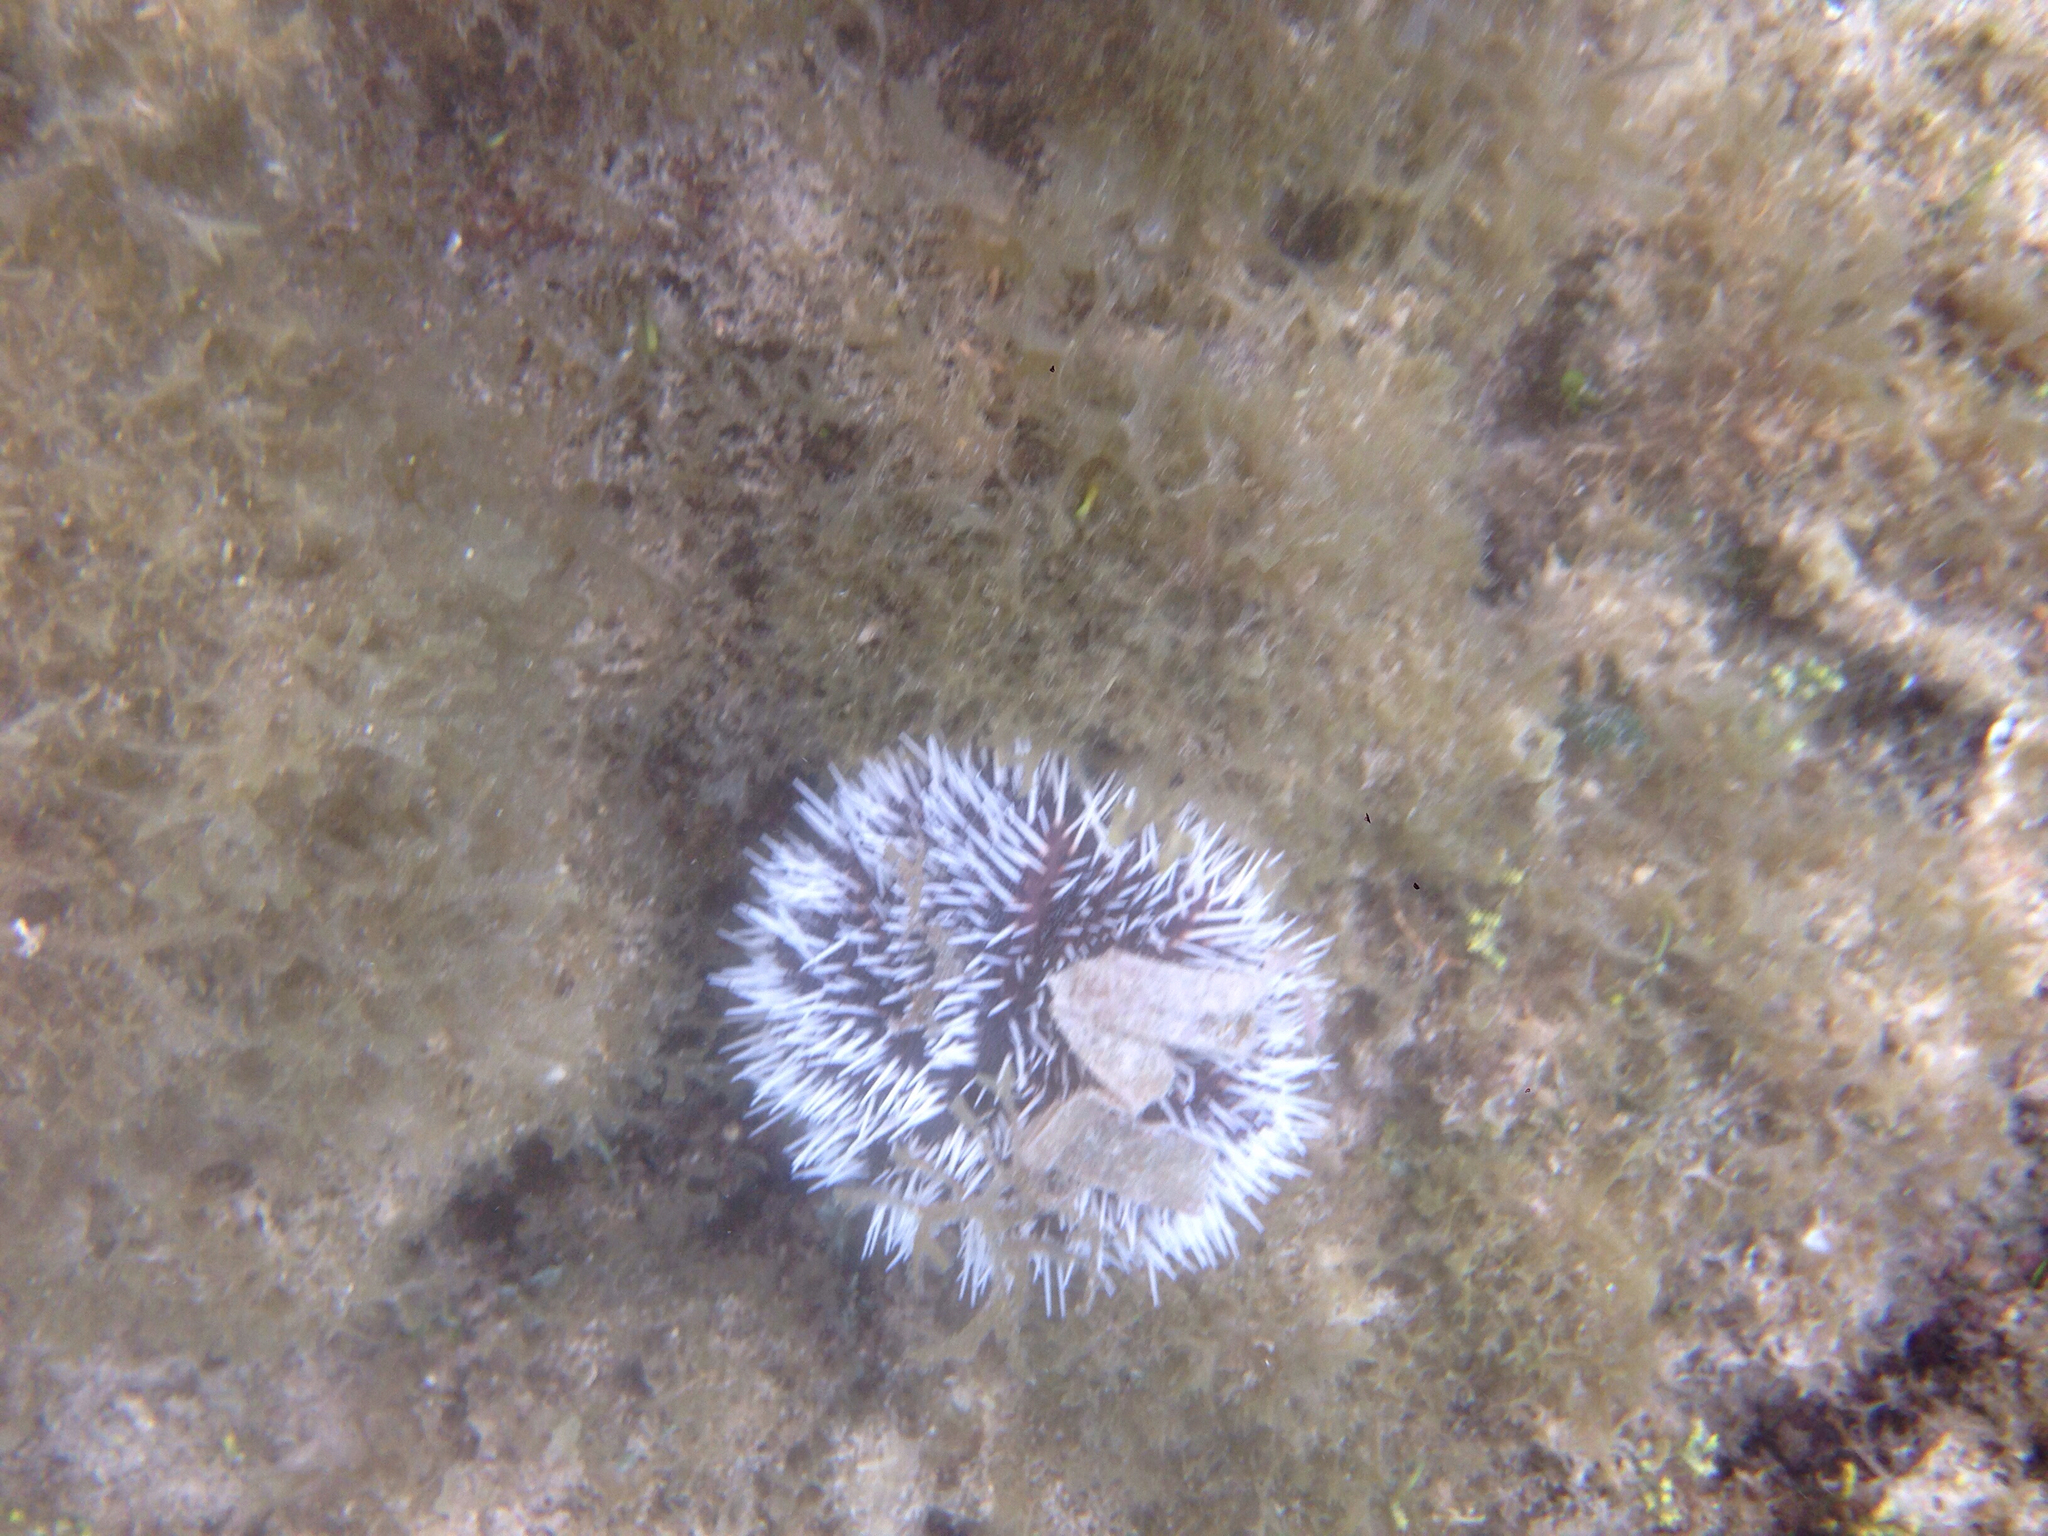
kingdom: Animalia
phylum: Echinodermata
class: Echinoidea
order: Camarodonta
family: Toxopneustidae
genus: Tripneustes
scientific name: Tripneustes ventricosus
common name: West indian sea egg
